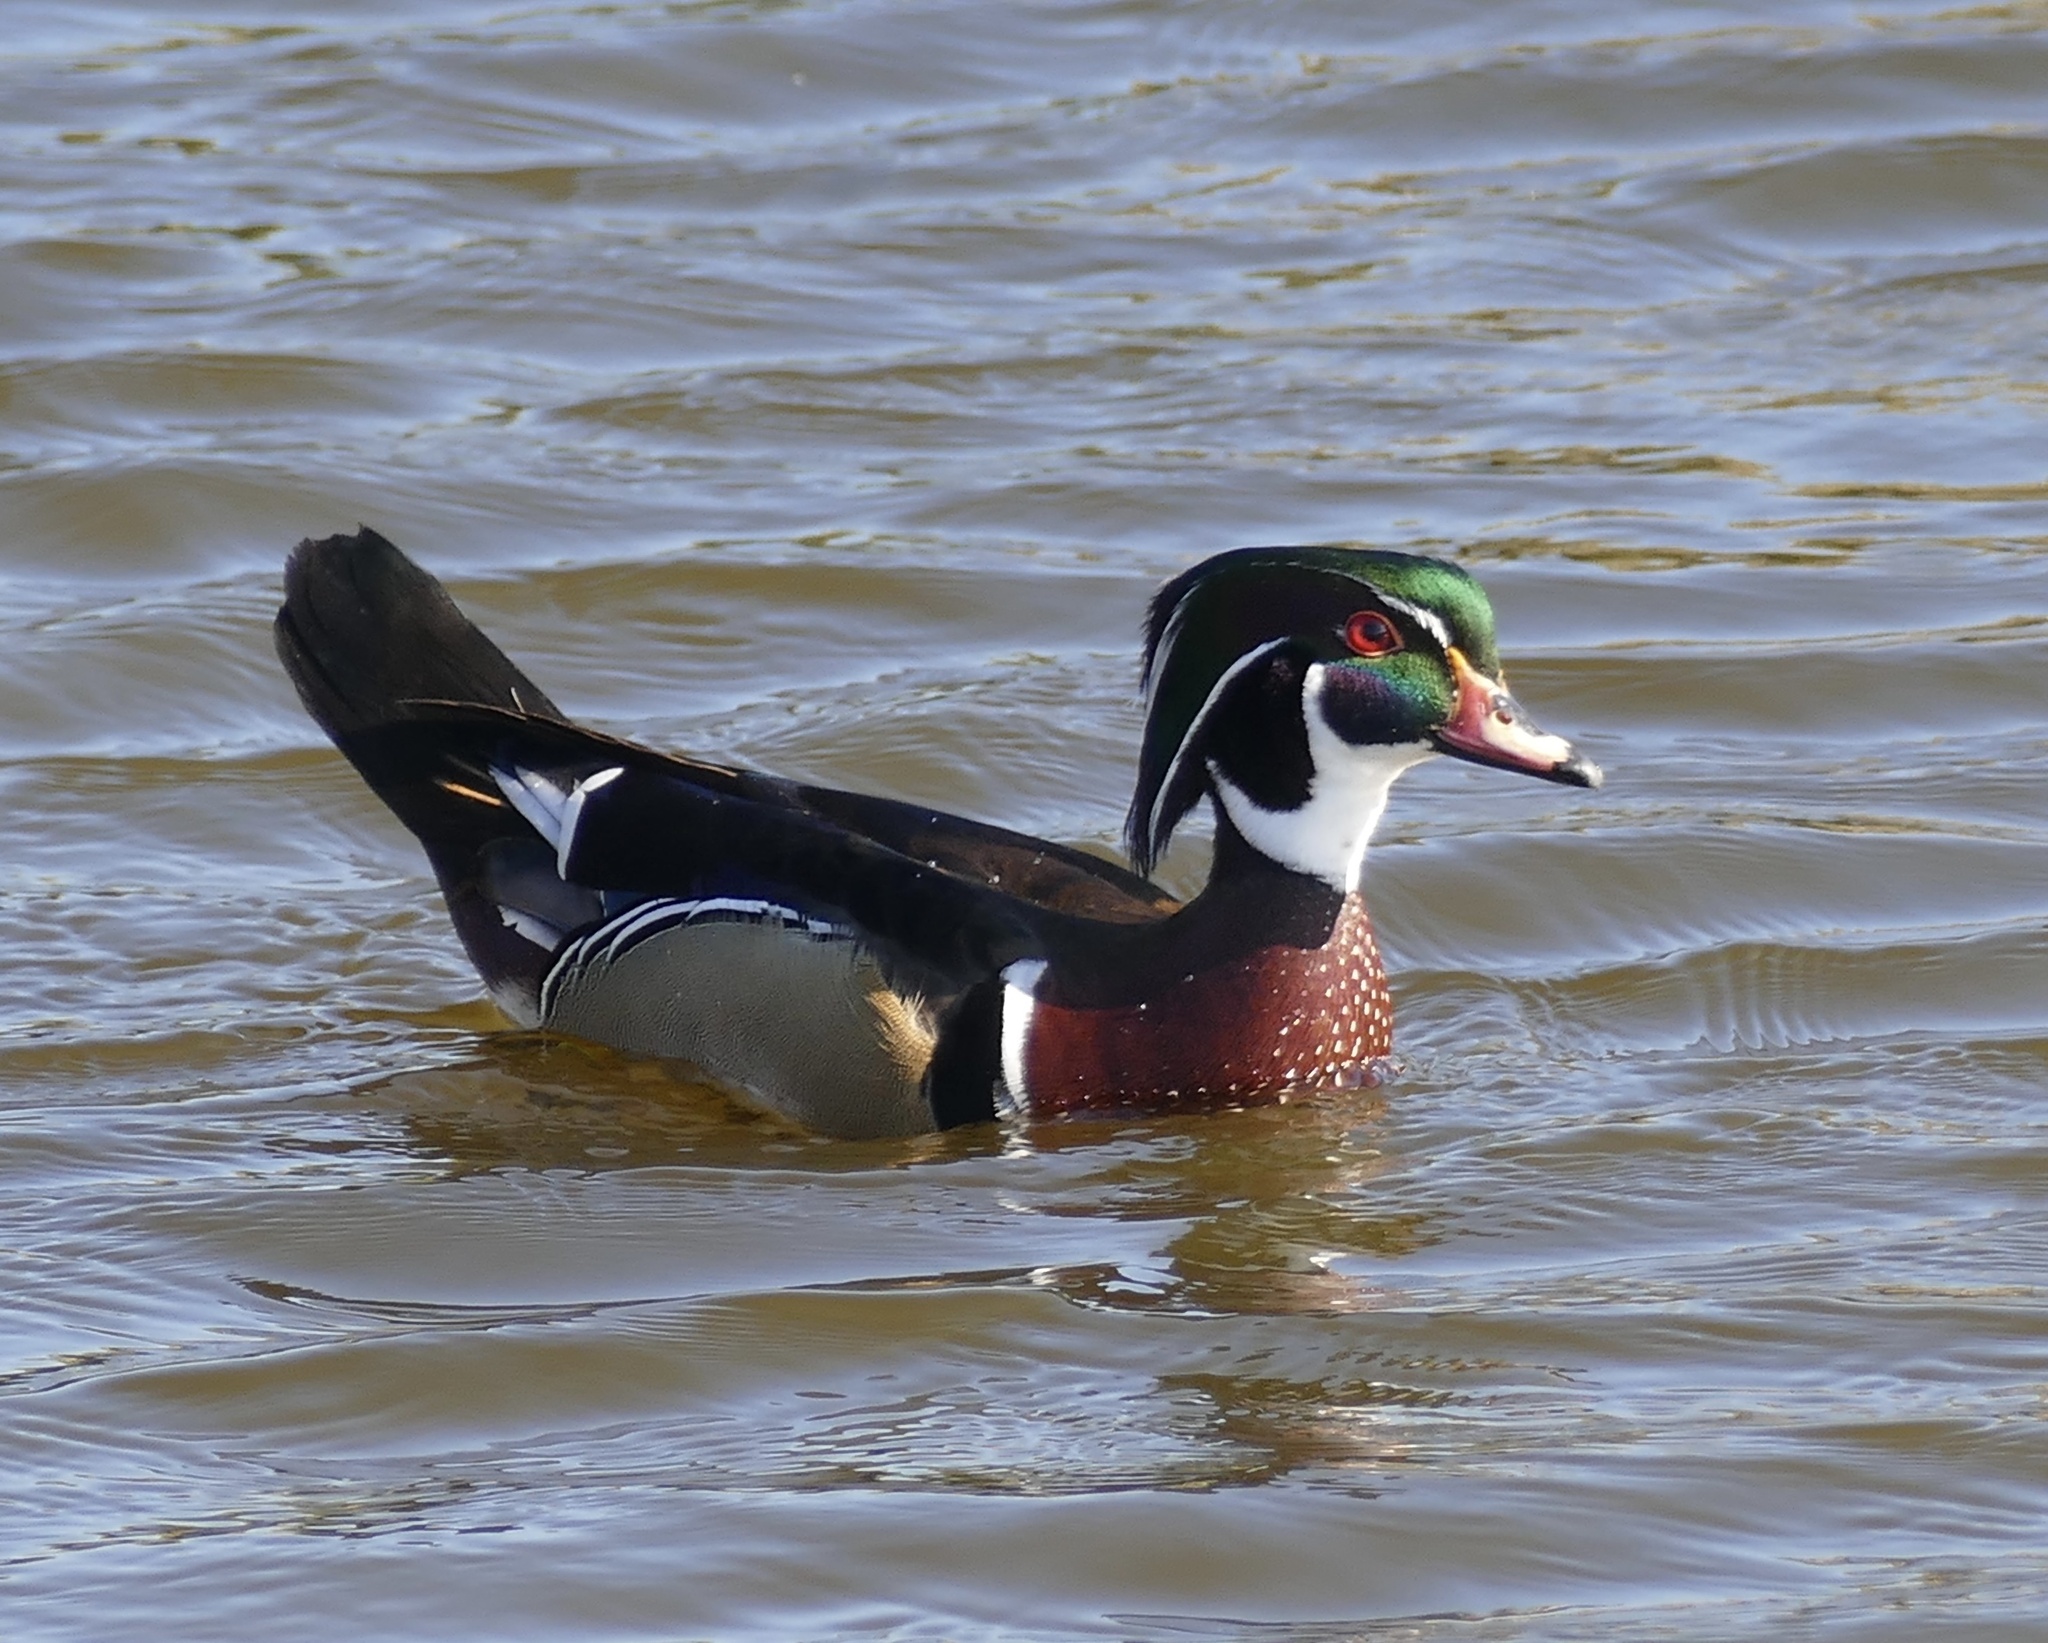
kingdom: Animalia
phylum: Chordata
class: Aves
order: Anseriformes
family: Anatidae
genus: Aix
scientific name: Aix sponsa
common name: Wood duck
